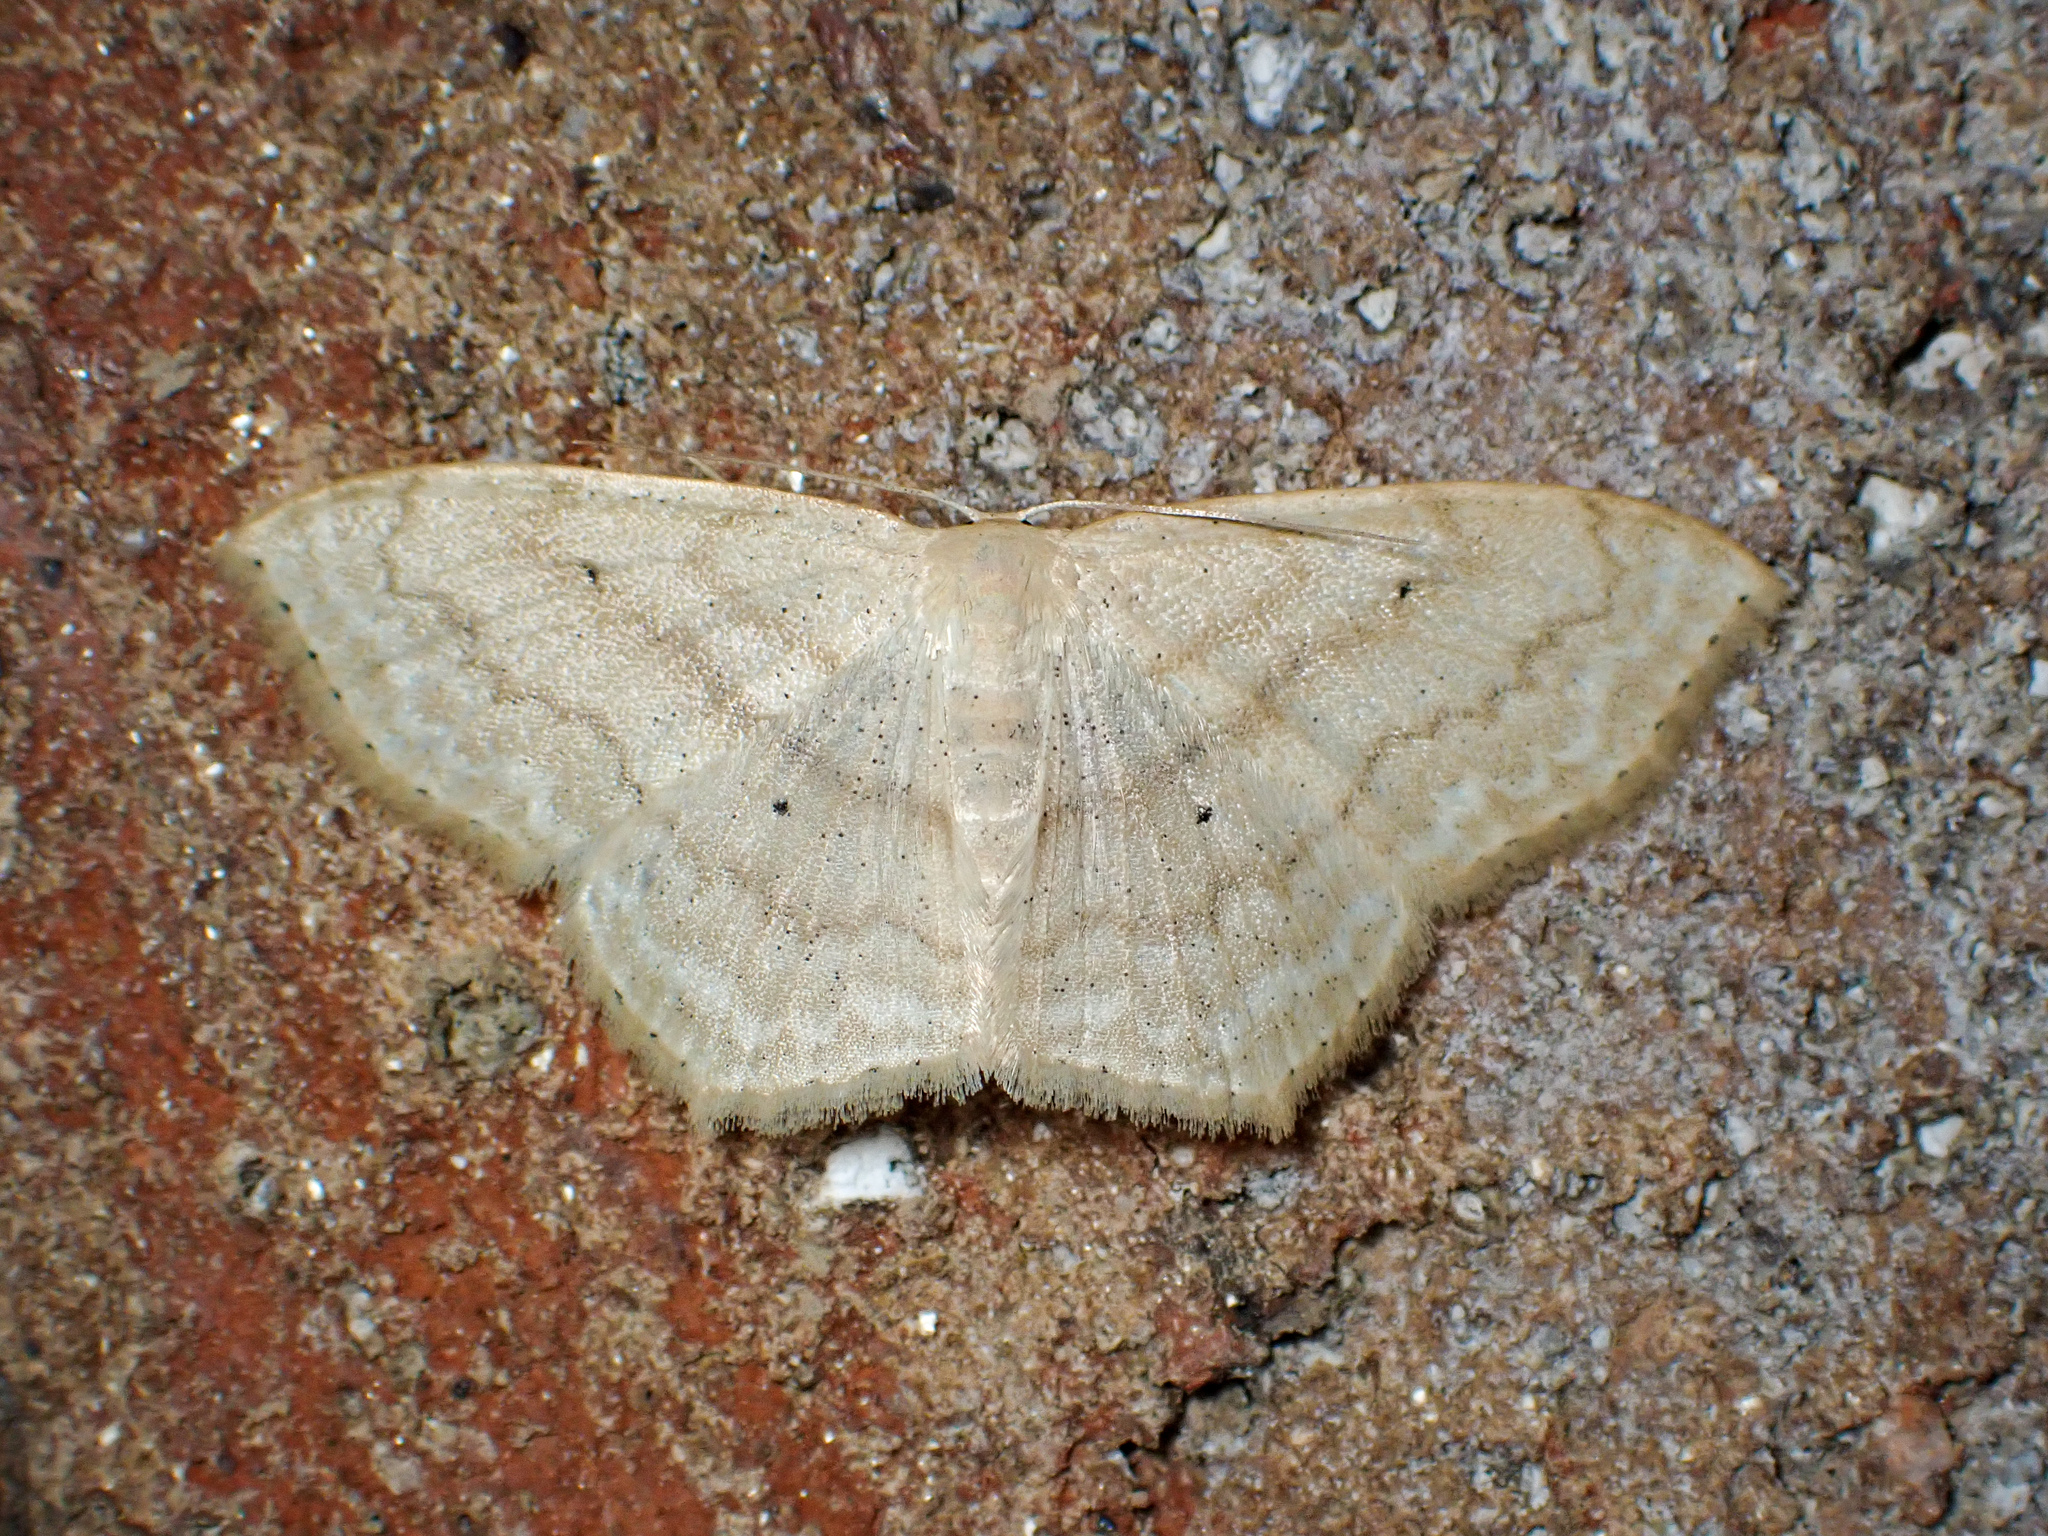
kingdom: Animalia
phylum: Arthropoda
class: Insecta
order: Lepidoptera
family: Geometridae
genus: Scopula
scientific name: Scopula limboundata
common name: Large lace border
